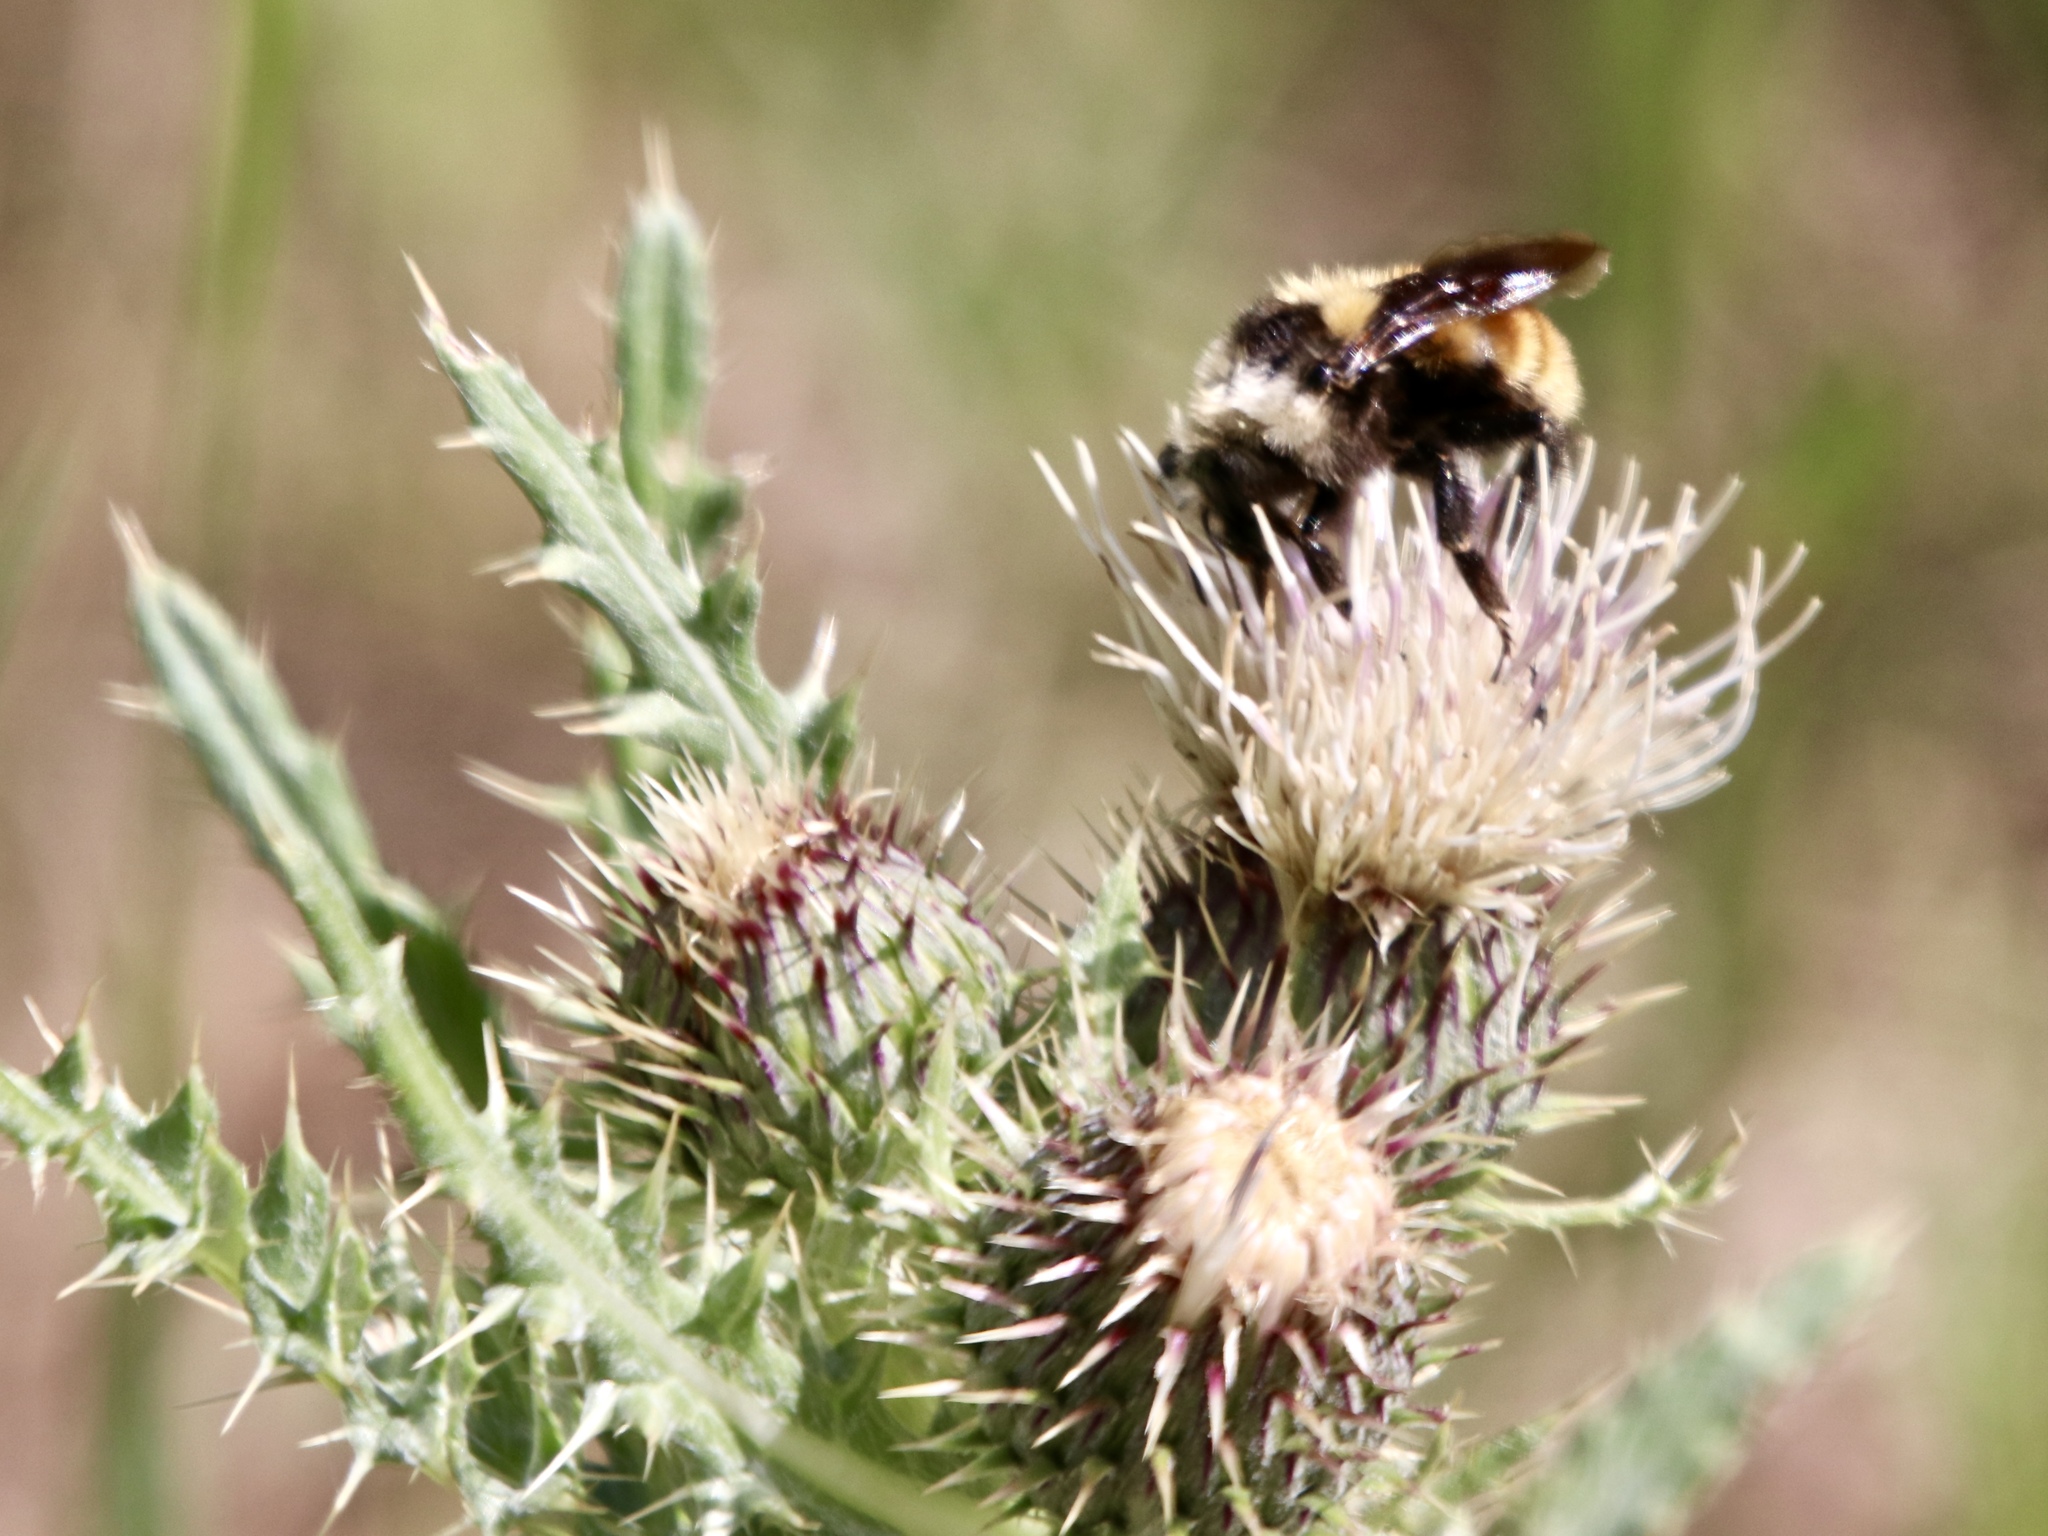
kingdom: Animalia
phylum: Arthropoda
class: Insecta
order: Hymenoptera
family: Apidae
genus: Bombus
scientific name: Bombus appositus
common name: White-shouldered bumble bee
